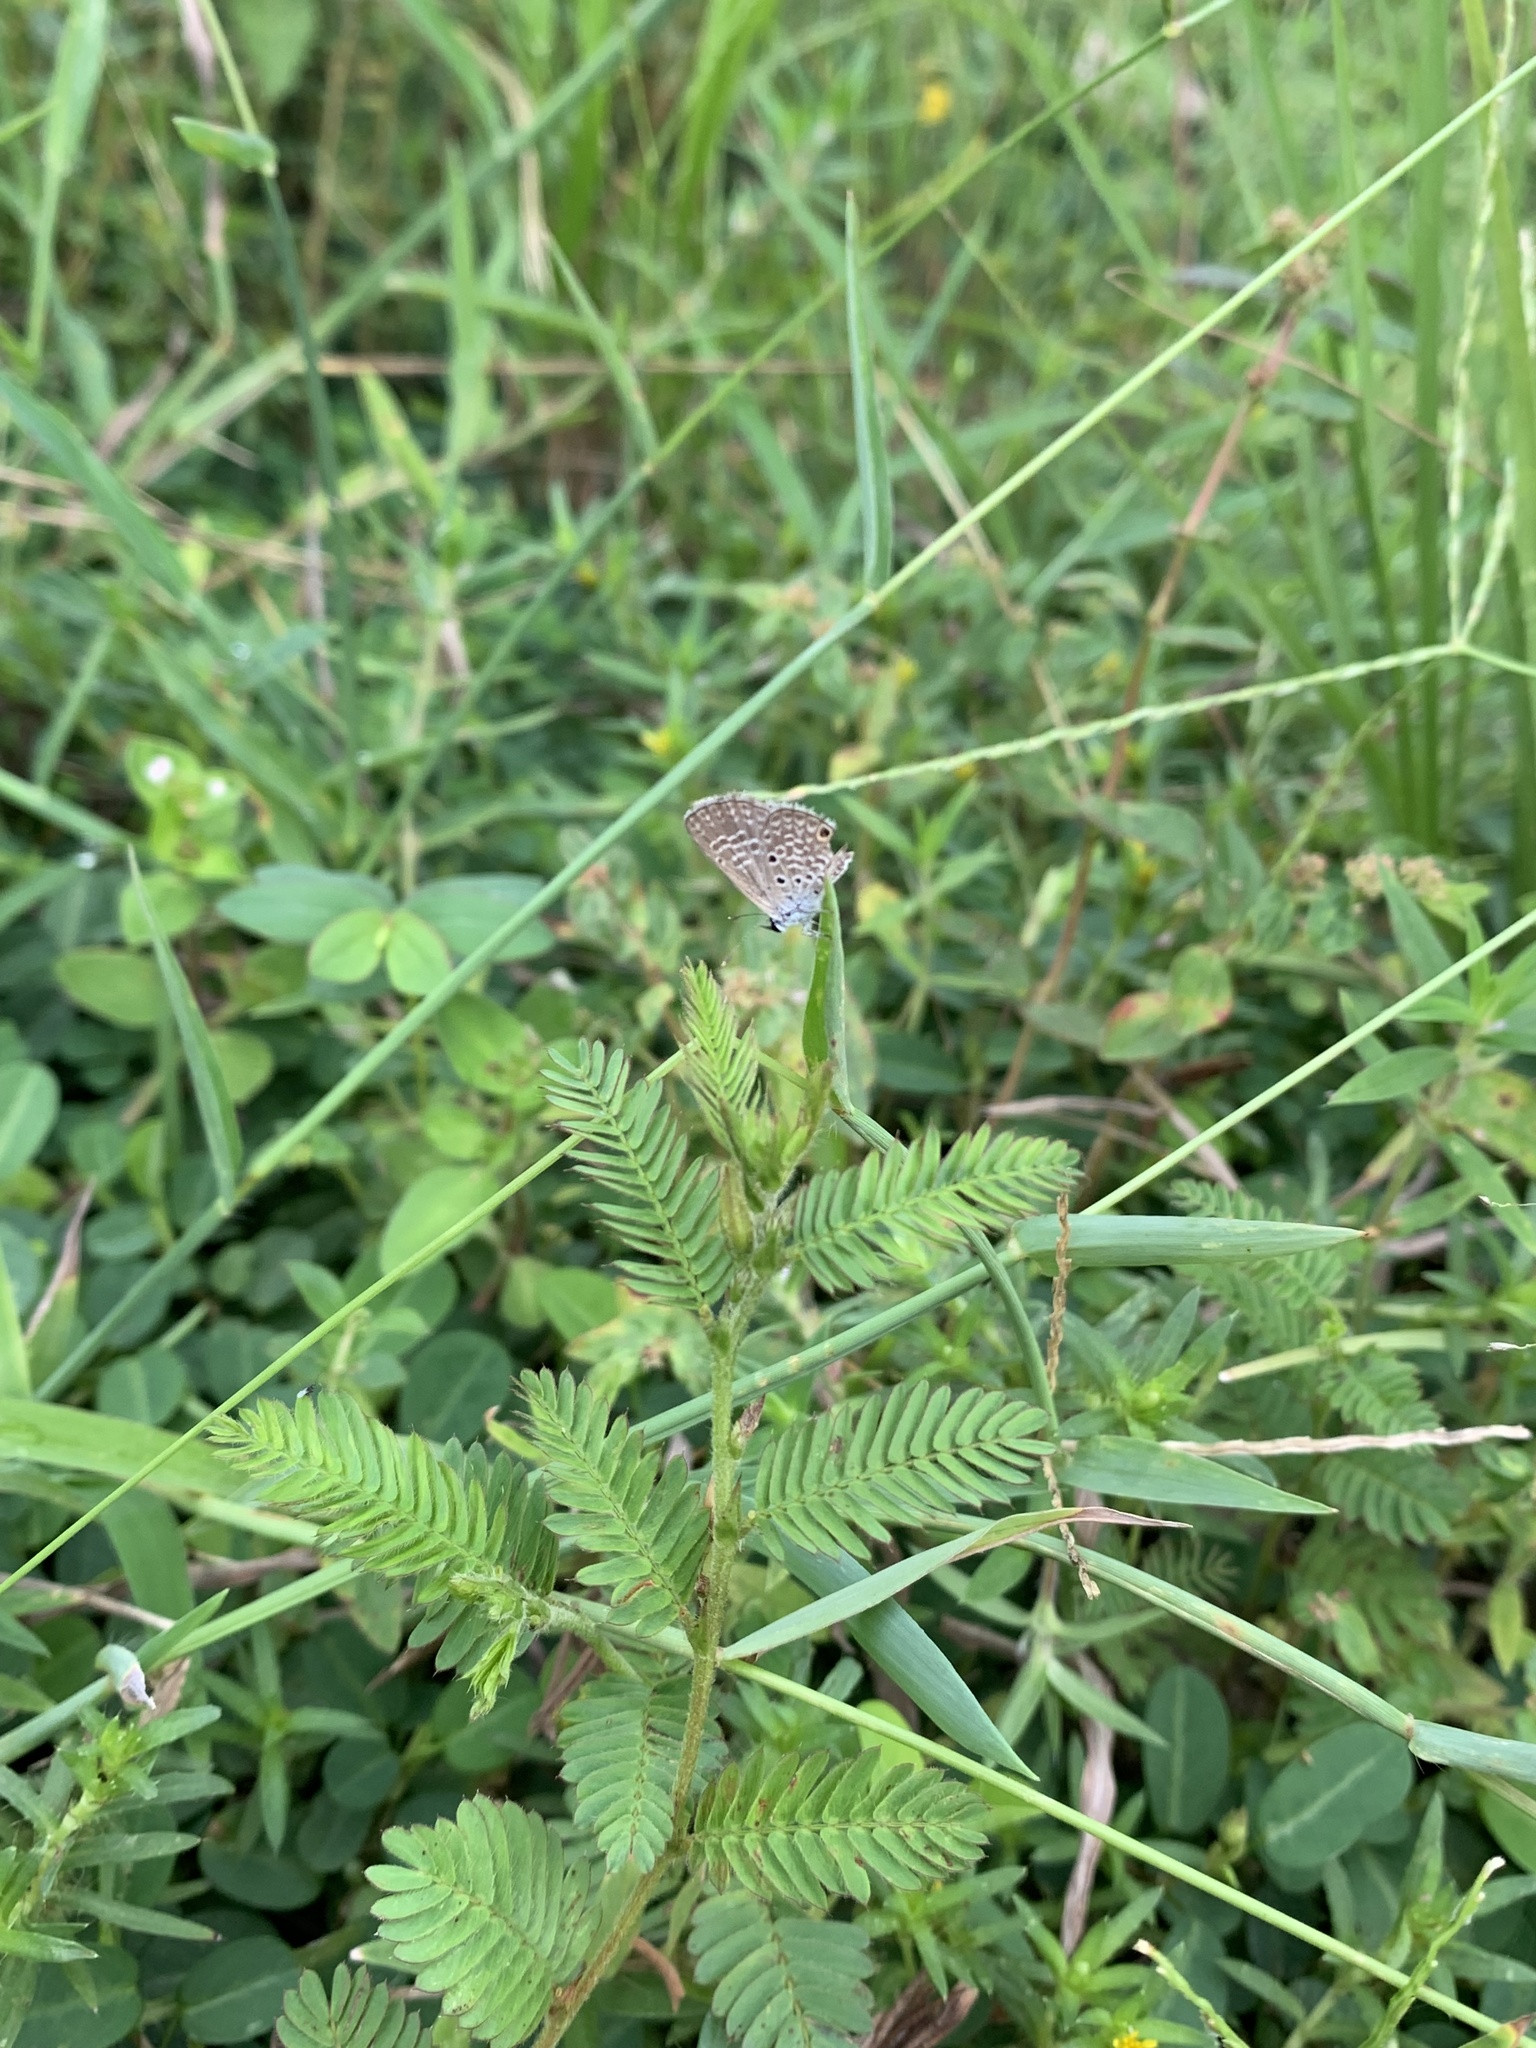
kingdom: Animalia
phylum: Arthropoda
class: Insecta
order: Lepidoptera
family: Lycaenidae
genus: Hemiargus
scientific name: Hemiargus hanno
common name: Common blue
